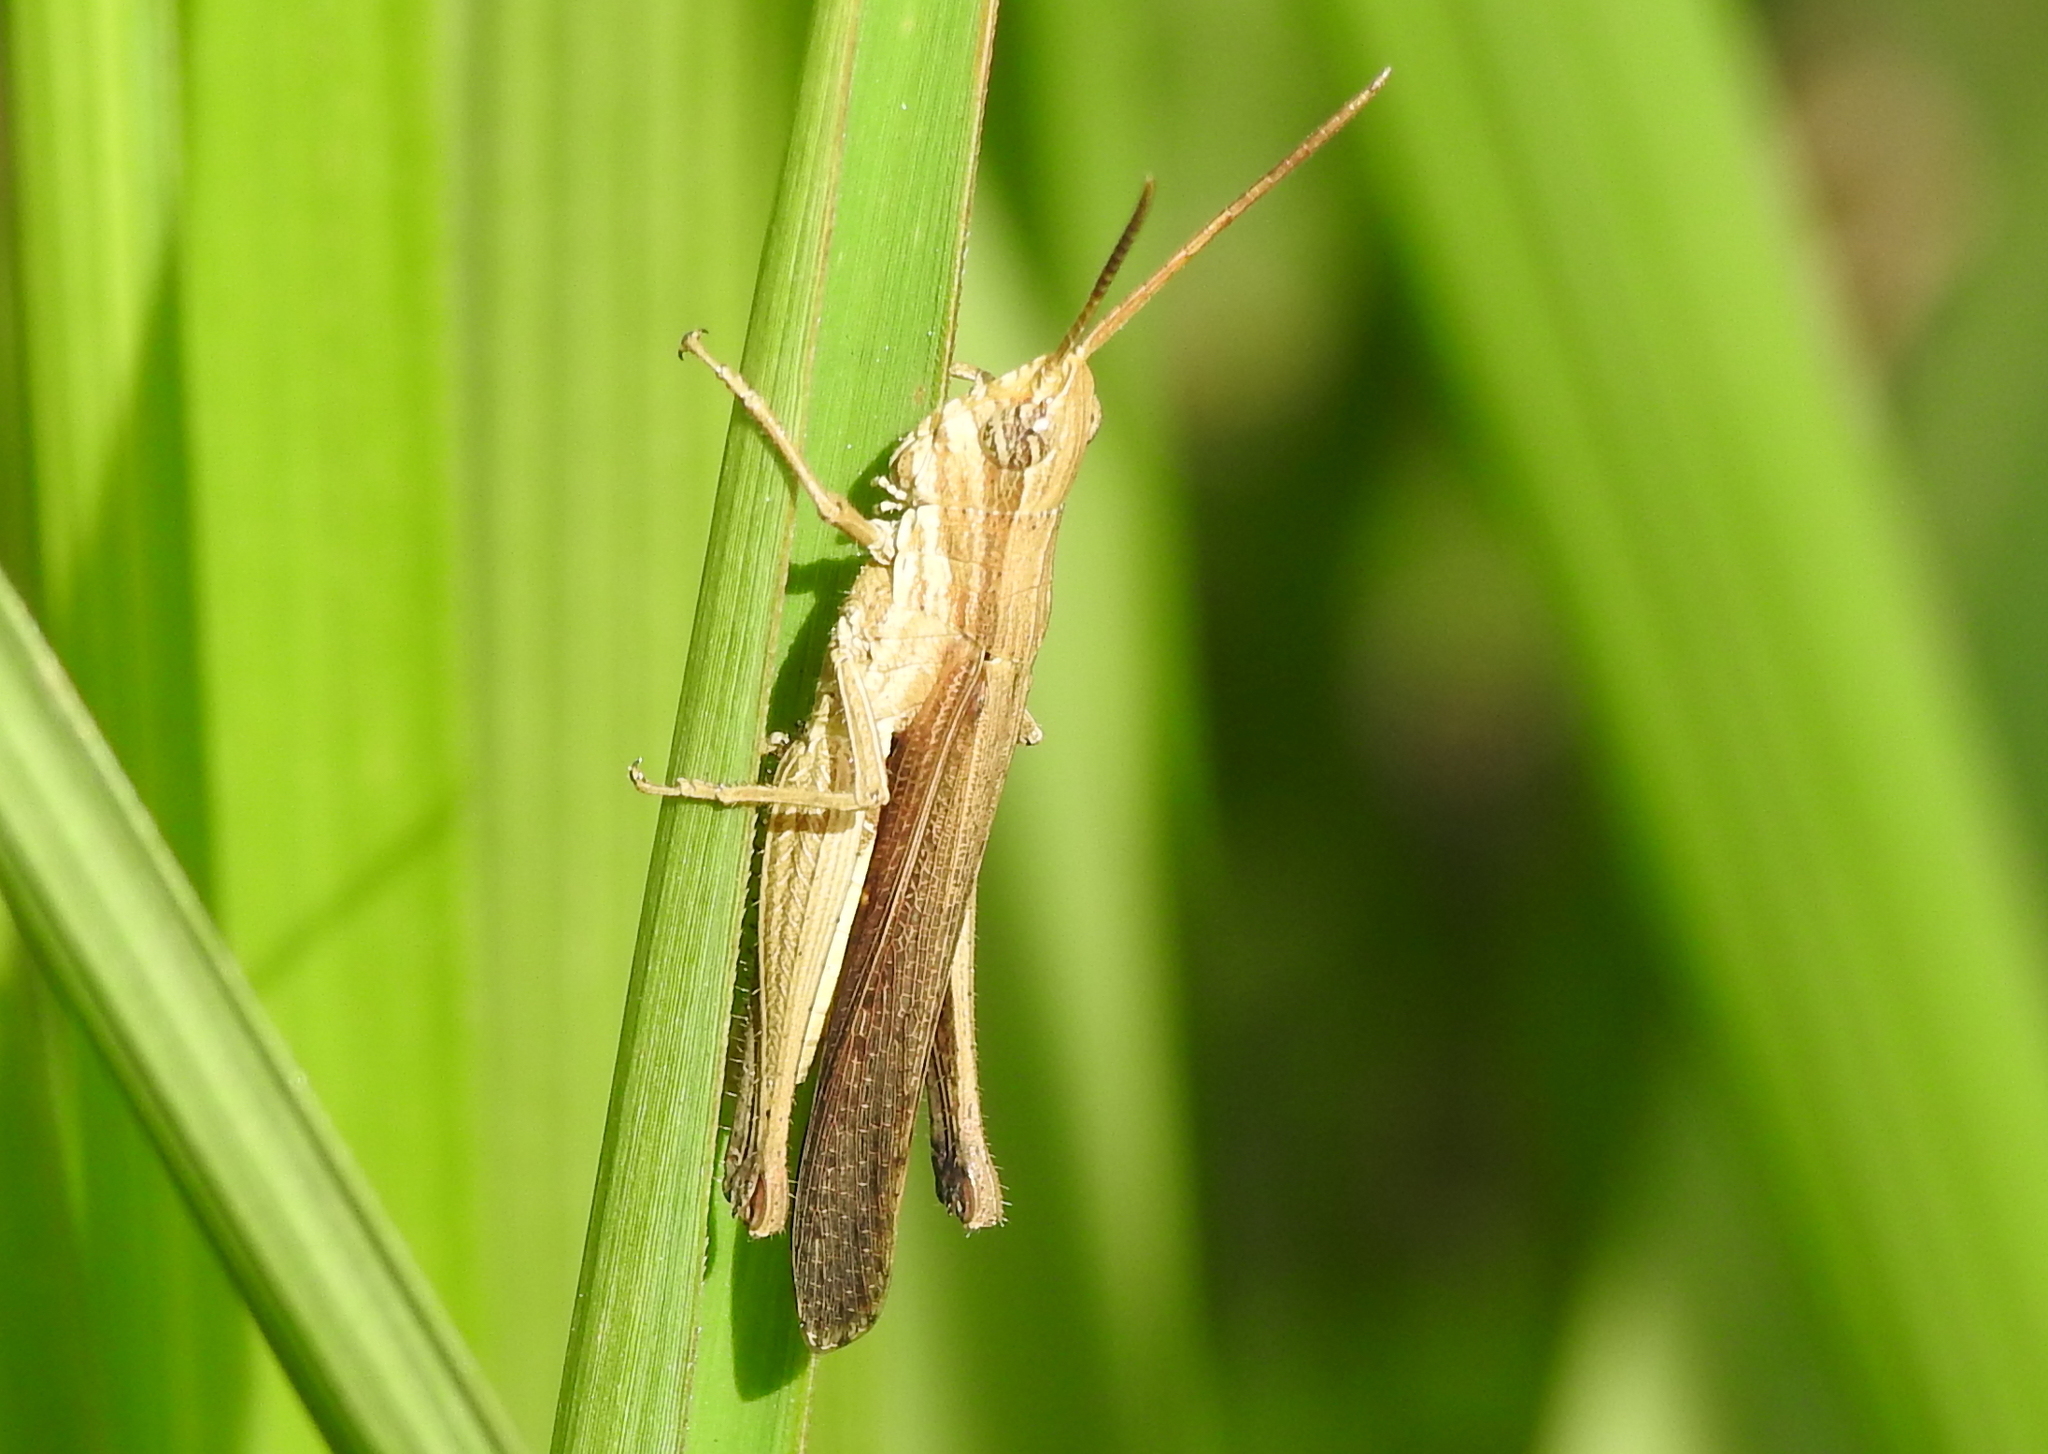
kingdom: Animalia
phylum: Arthropoda
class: Insecta
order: Orthoptera
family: Acrididae
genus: Phlaeoba
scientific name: Phlaeoba infumata
